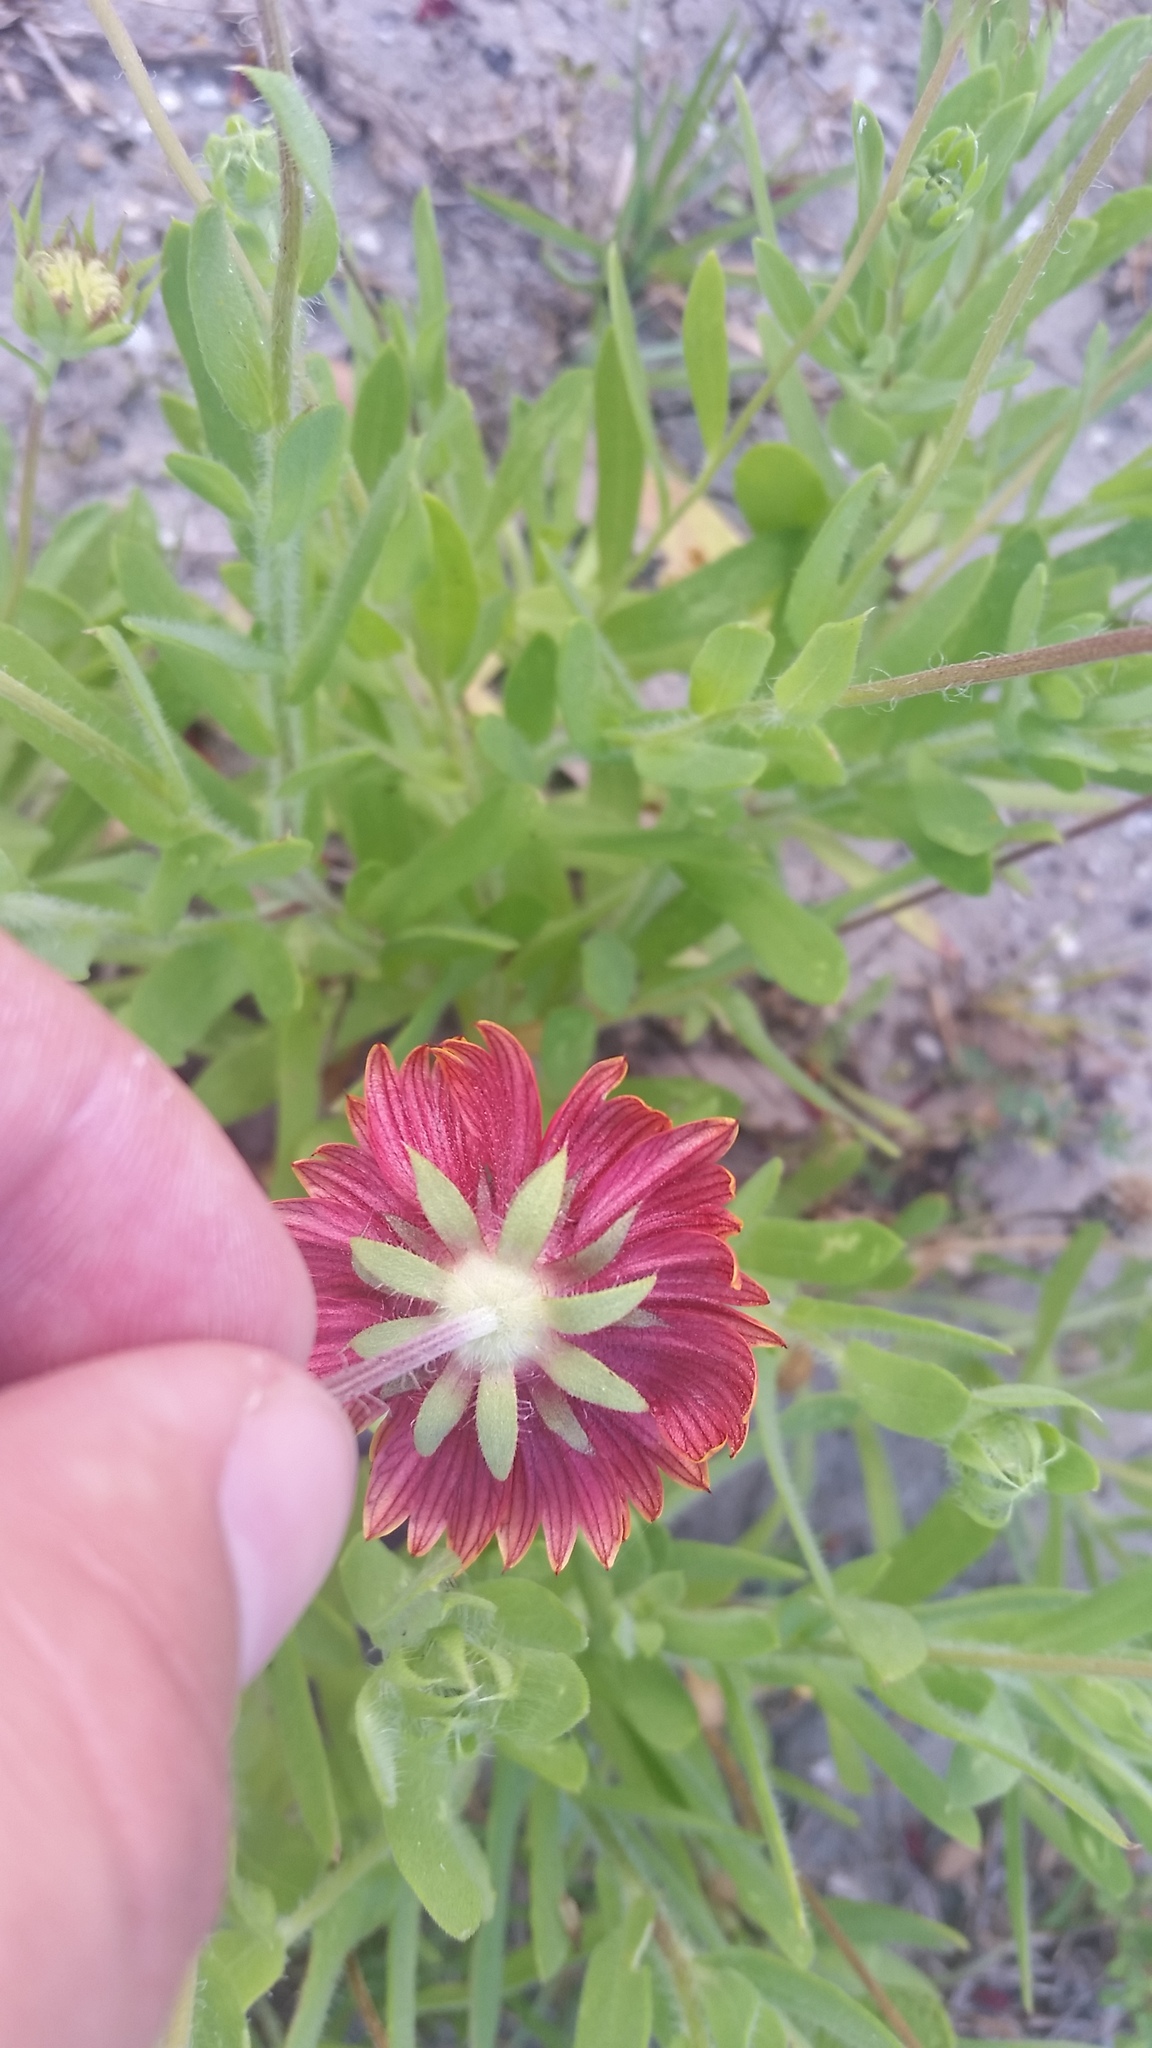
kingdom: Plantae
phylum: Tracheophyta
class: Magnoliopsida
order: Asterales
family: Asteraceae
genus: Gaillardia
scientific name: Gaillardia pulchella
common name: Firewheel
